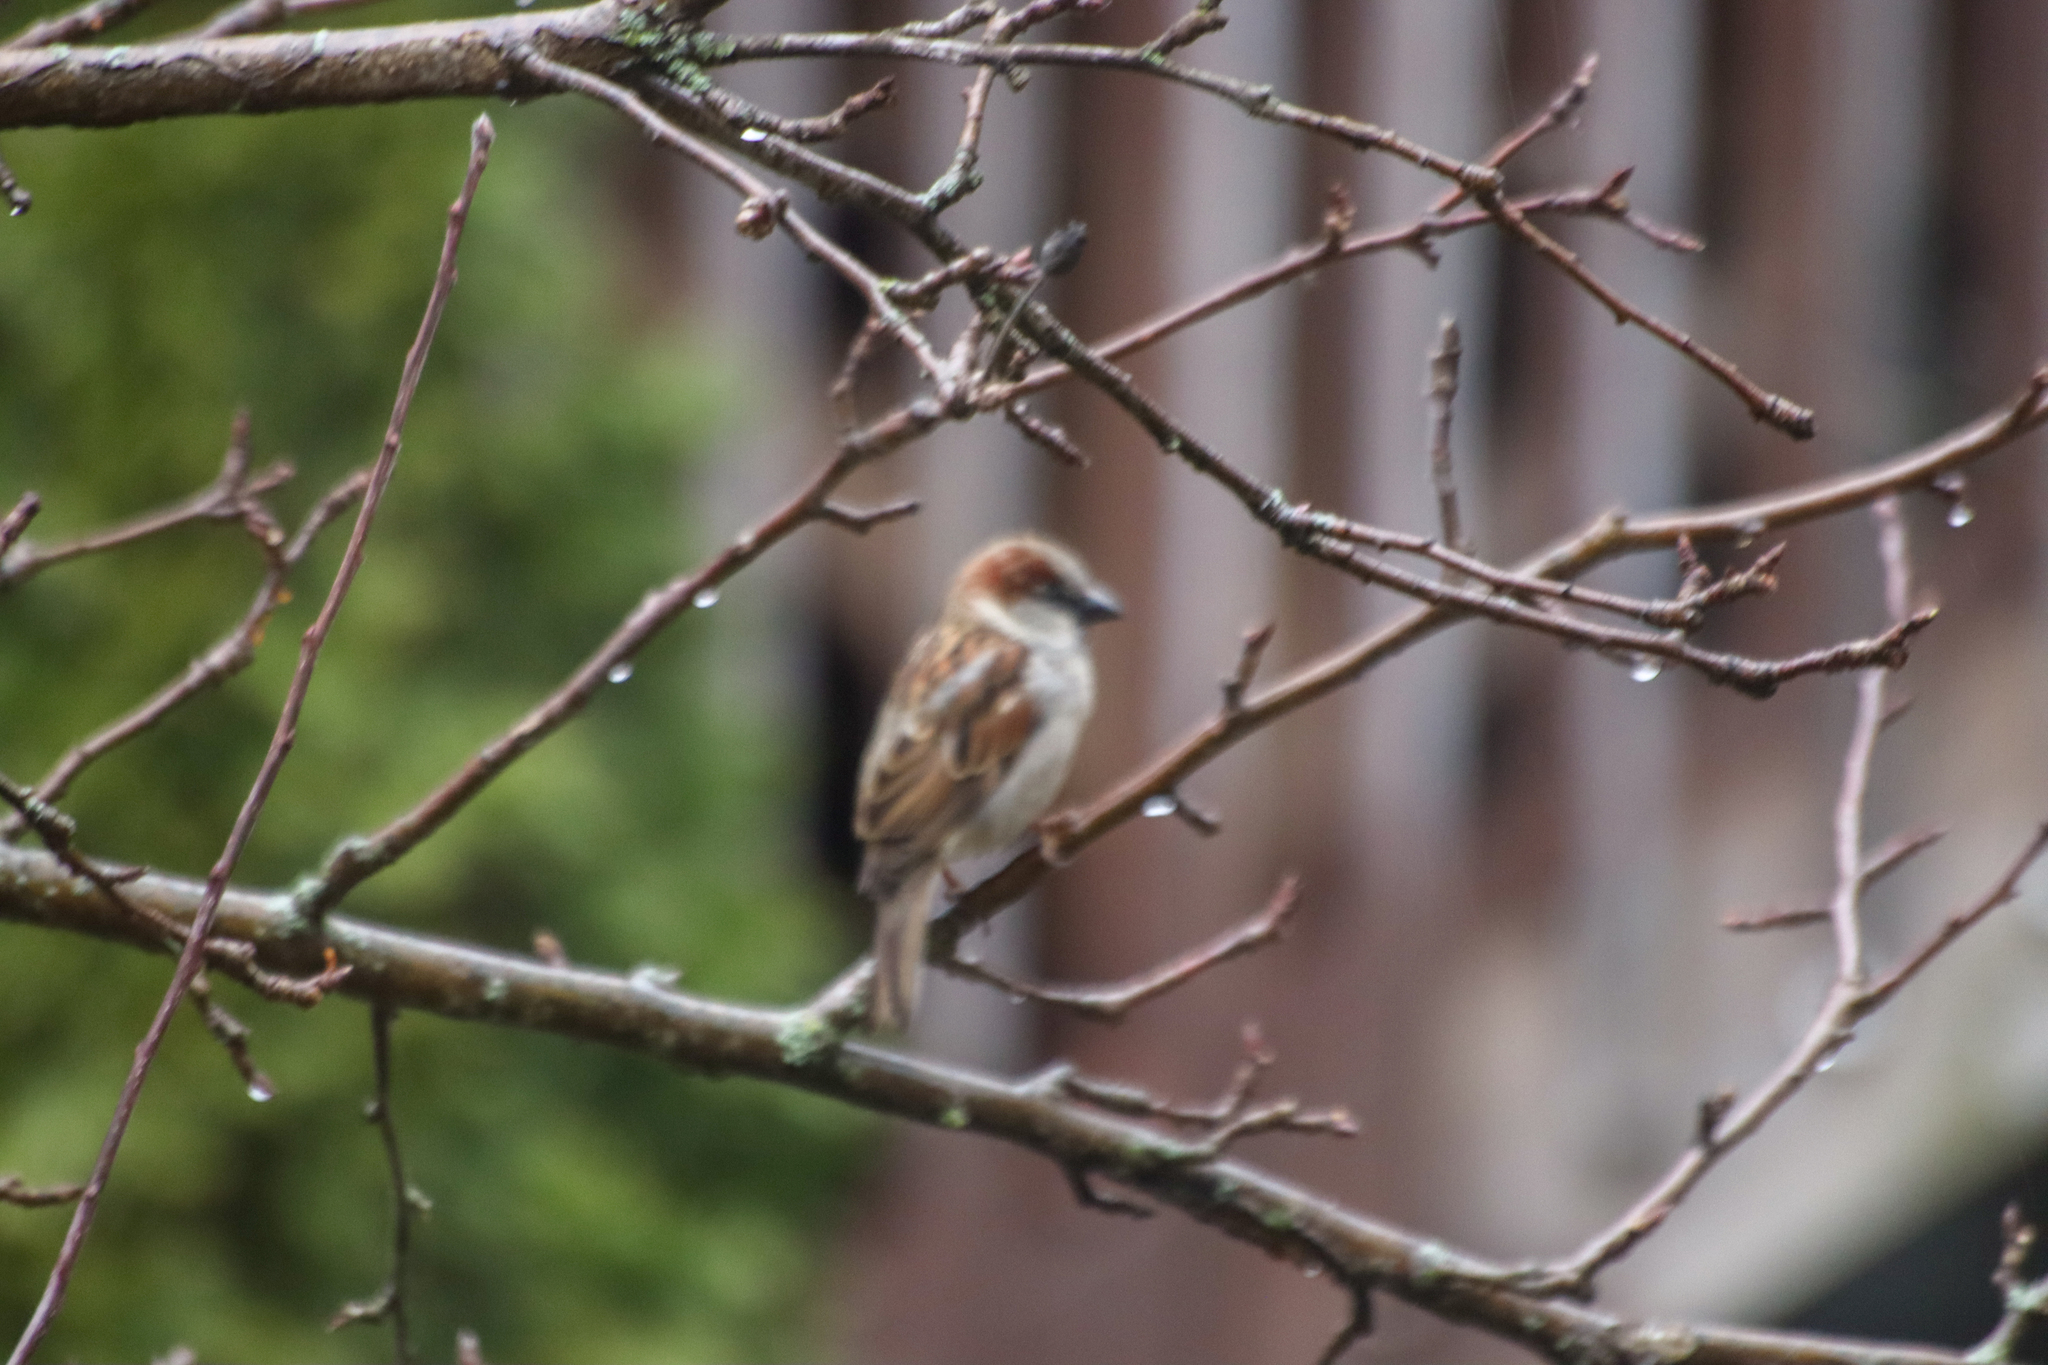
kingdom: Animalia
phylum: Chordata
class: Aves
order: Passeriformes
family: Passeridae
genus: Passer
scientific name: Passer domesticus
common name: House sparrow
